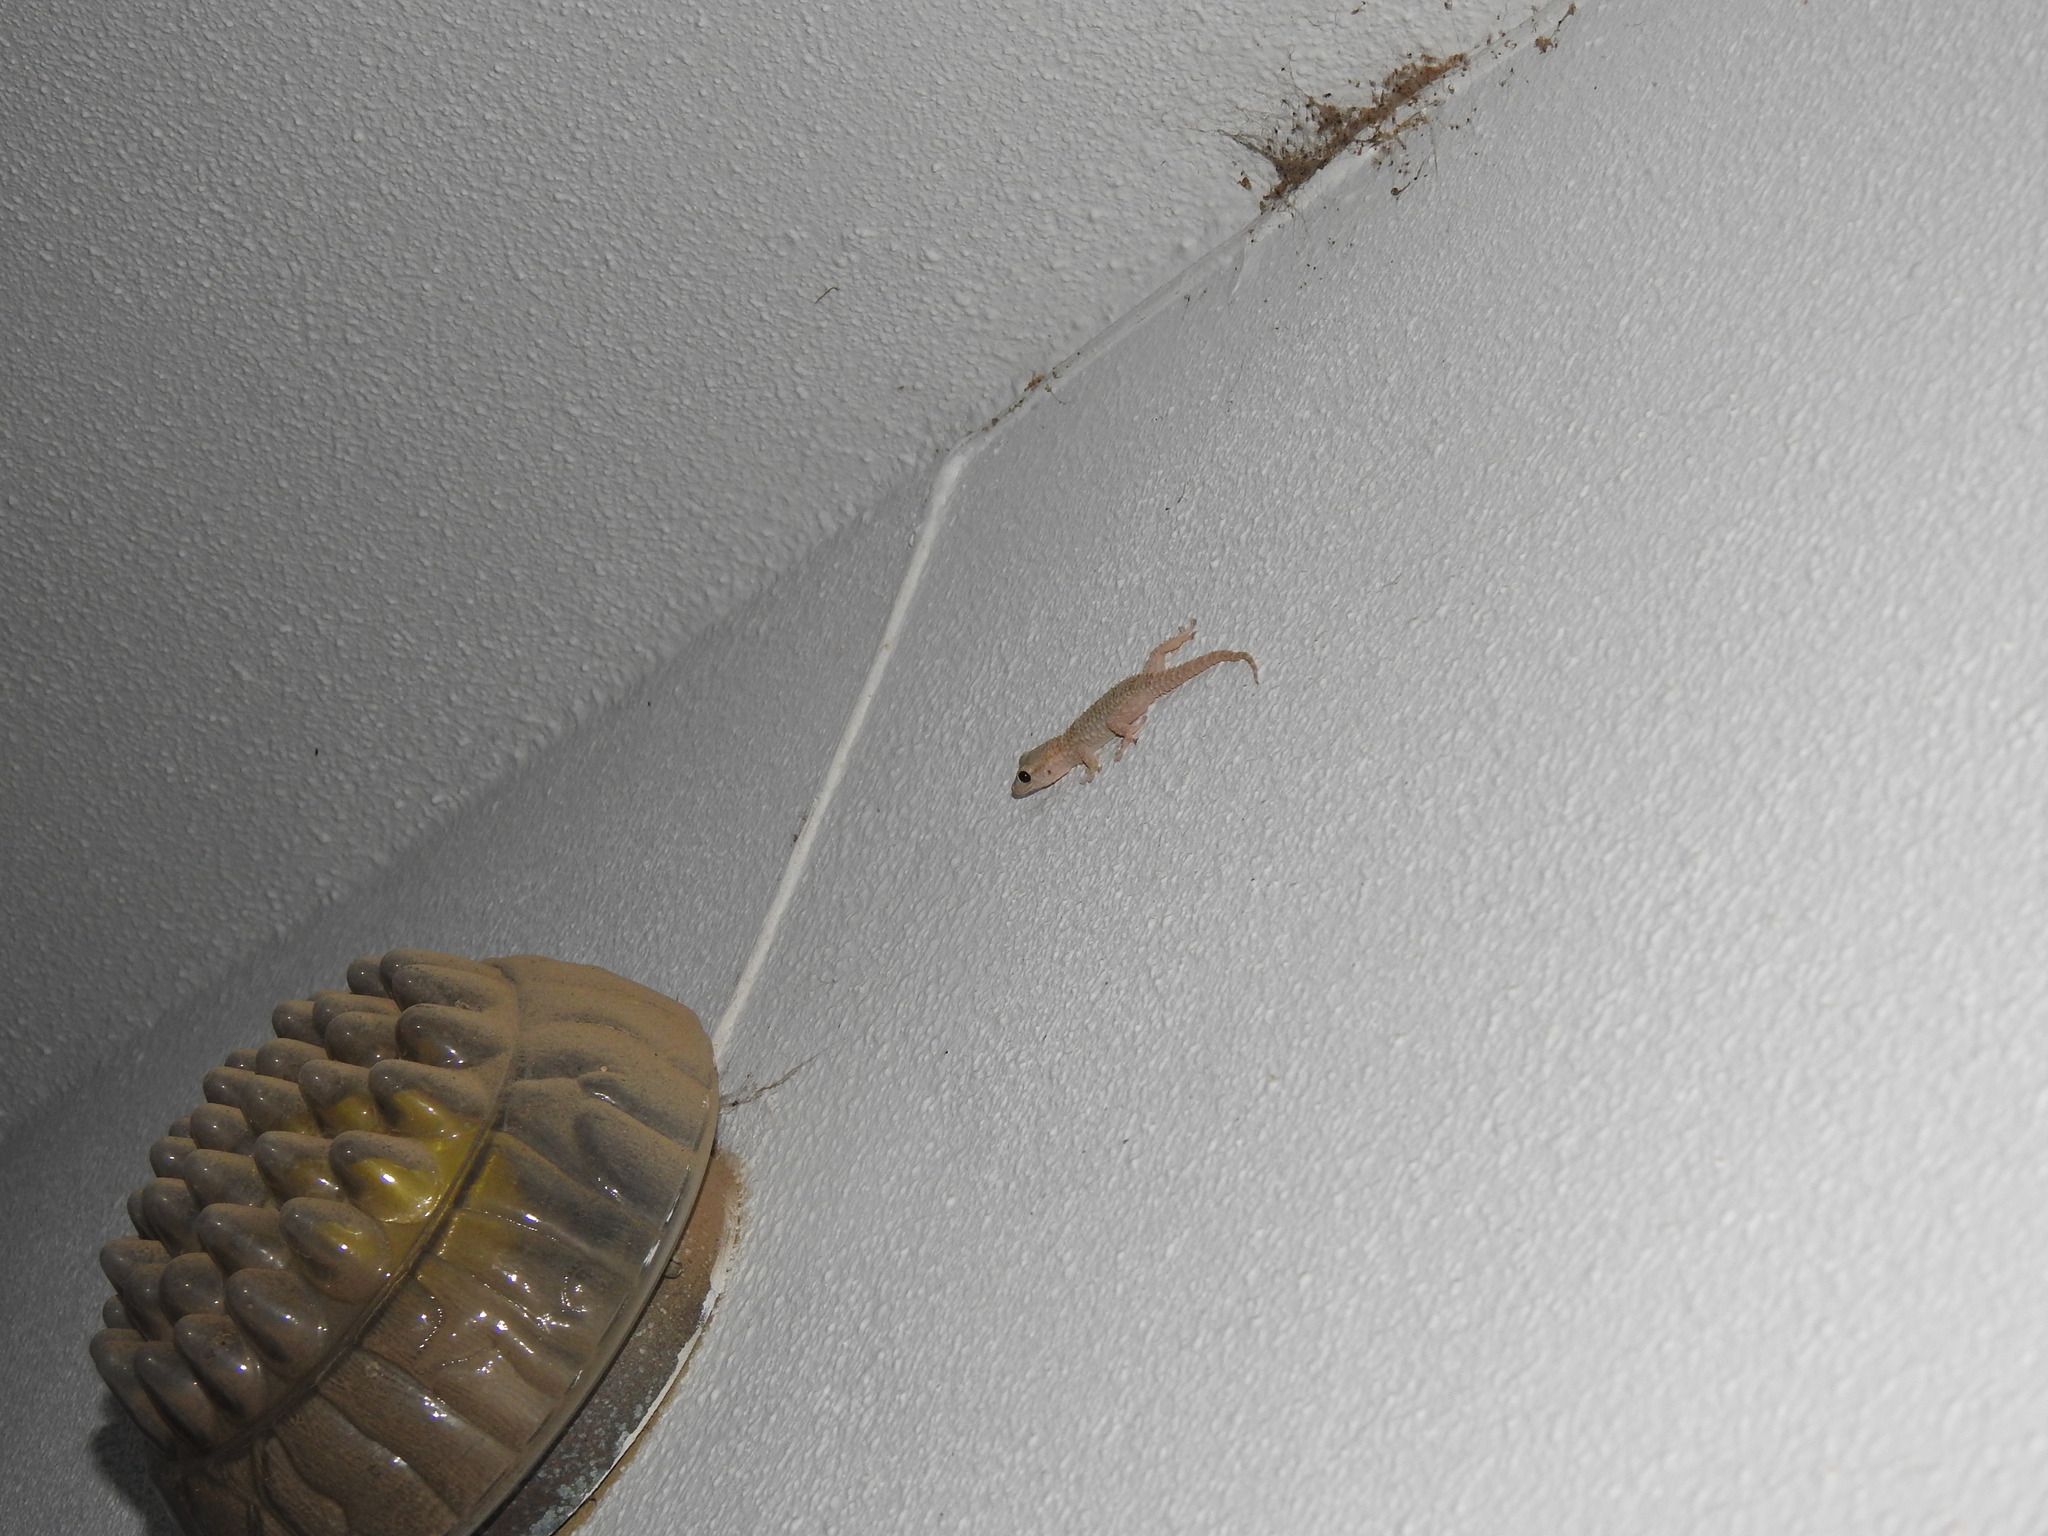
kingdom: Animalia
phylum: Chordata
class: Squamata
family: Phyllodactylidae
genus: Tarentola
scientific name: Tarentola mauritanica
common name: Moorish gecko
